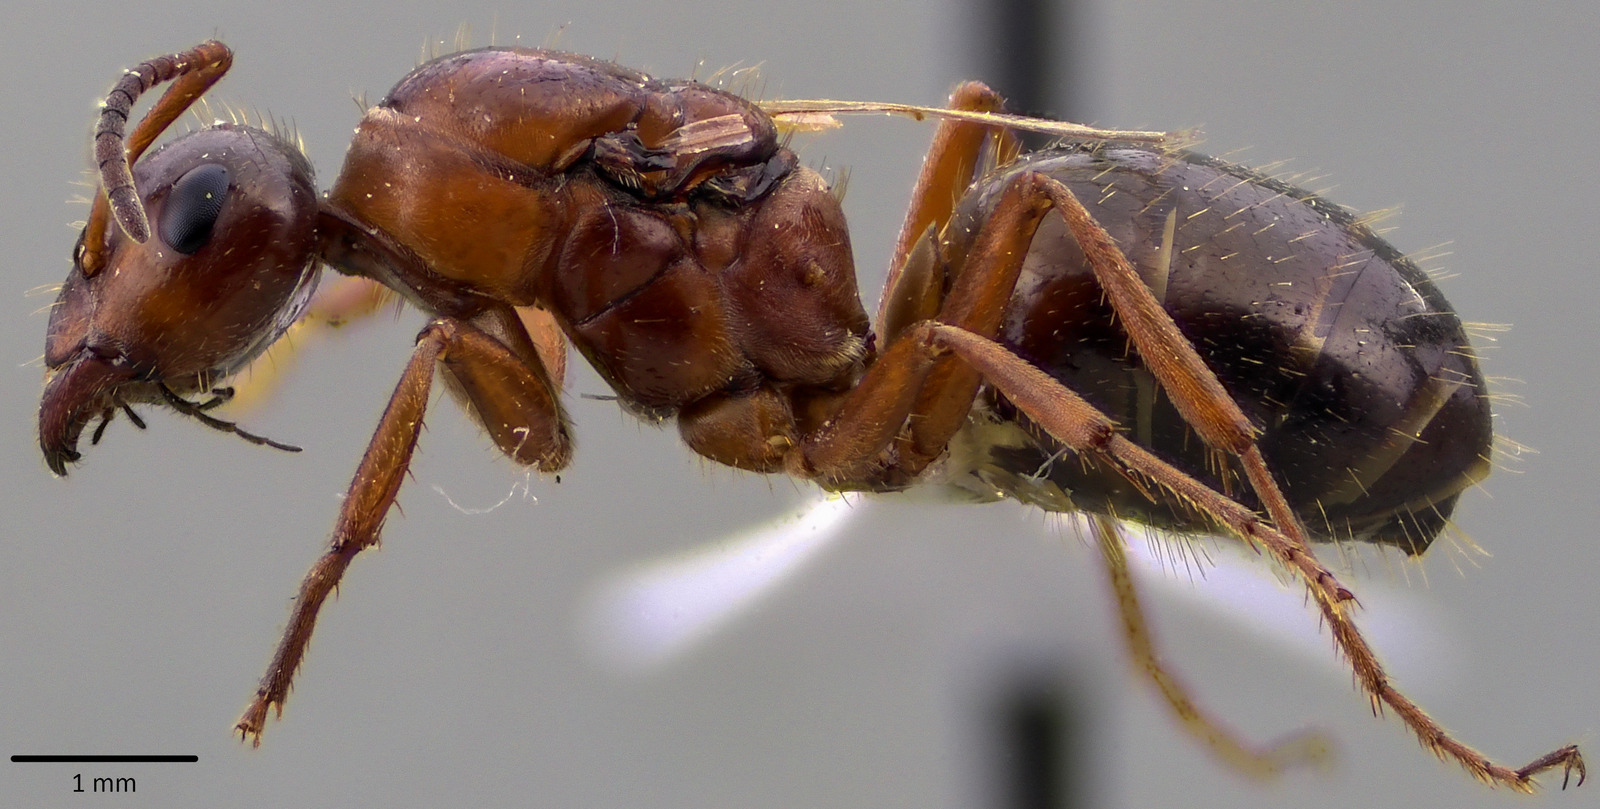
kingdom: Animalia
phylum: Arthropoda
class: Insecta
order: Hymenoptera
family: Formicidae
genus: Formica
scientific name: Formica neogagates
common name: New world black ant
